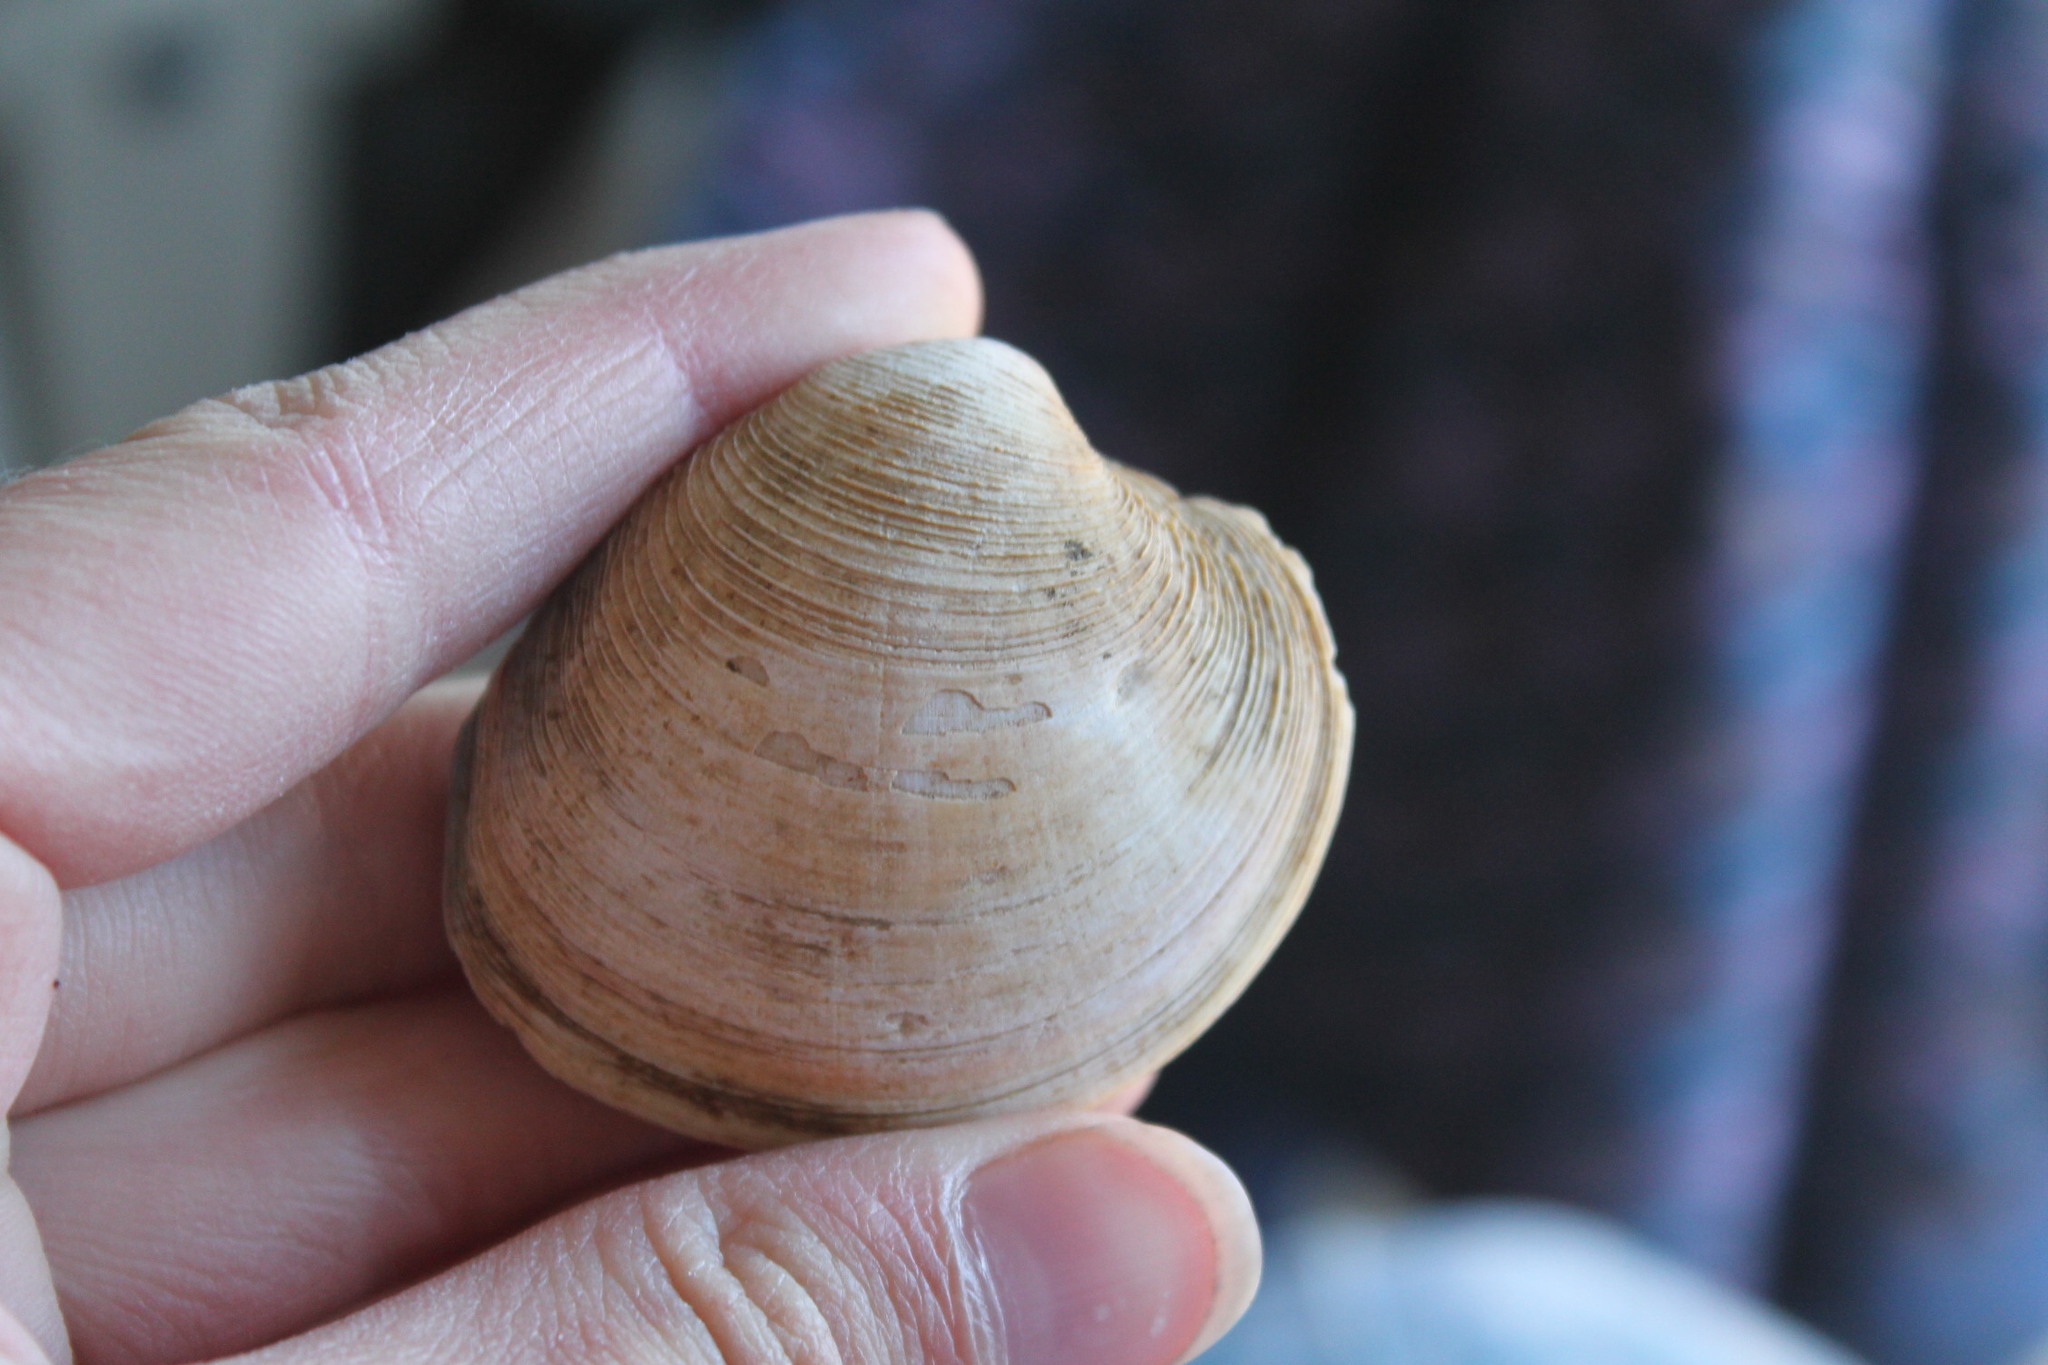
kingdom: Animalia
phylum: Mollusca
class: Bivalvia
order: Venerida
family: Veneridae
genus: Mercenaria
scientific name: Mercenaria mercenaria
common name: American hard-shelled clam
